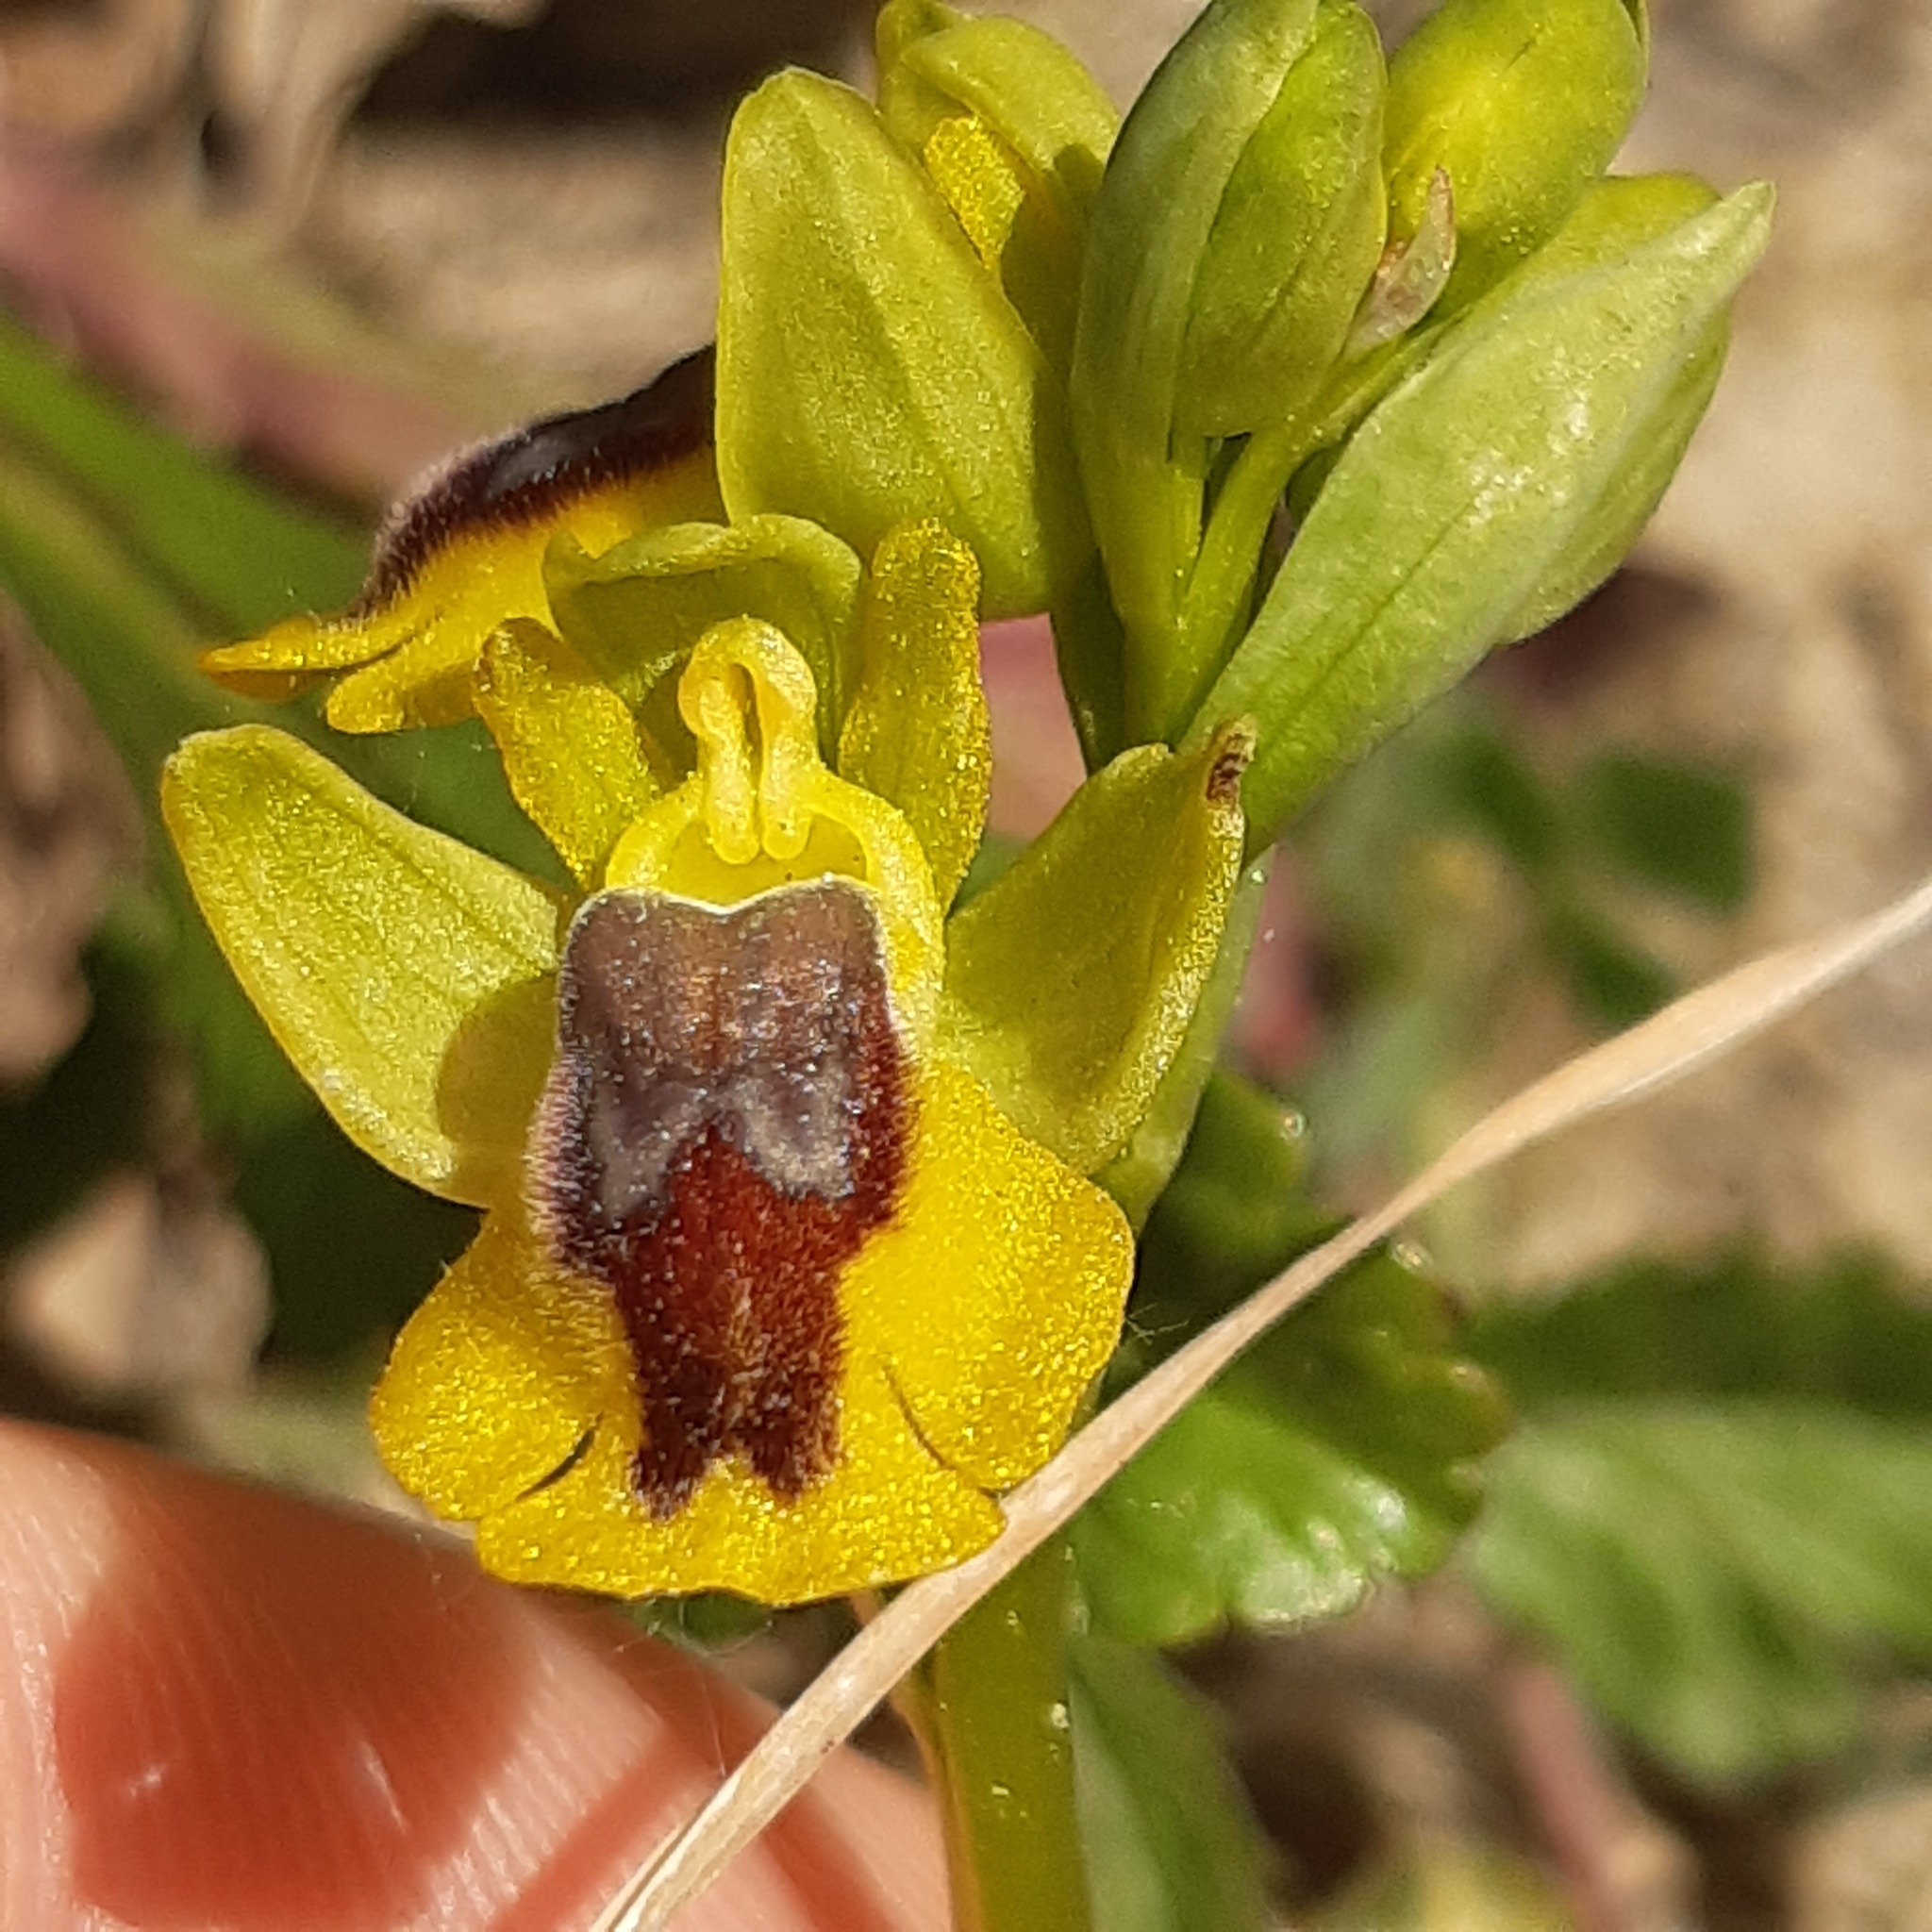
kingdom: Plantae
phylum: Tracheophyta
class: Liliopsida
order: Asparagales
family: Orchidaceae
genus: Ophrys
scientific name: Ophrys lutea
